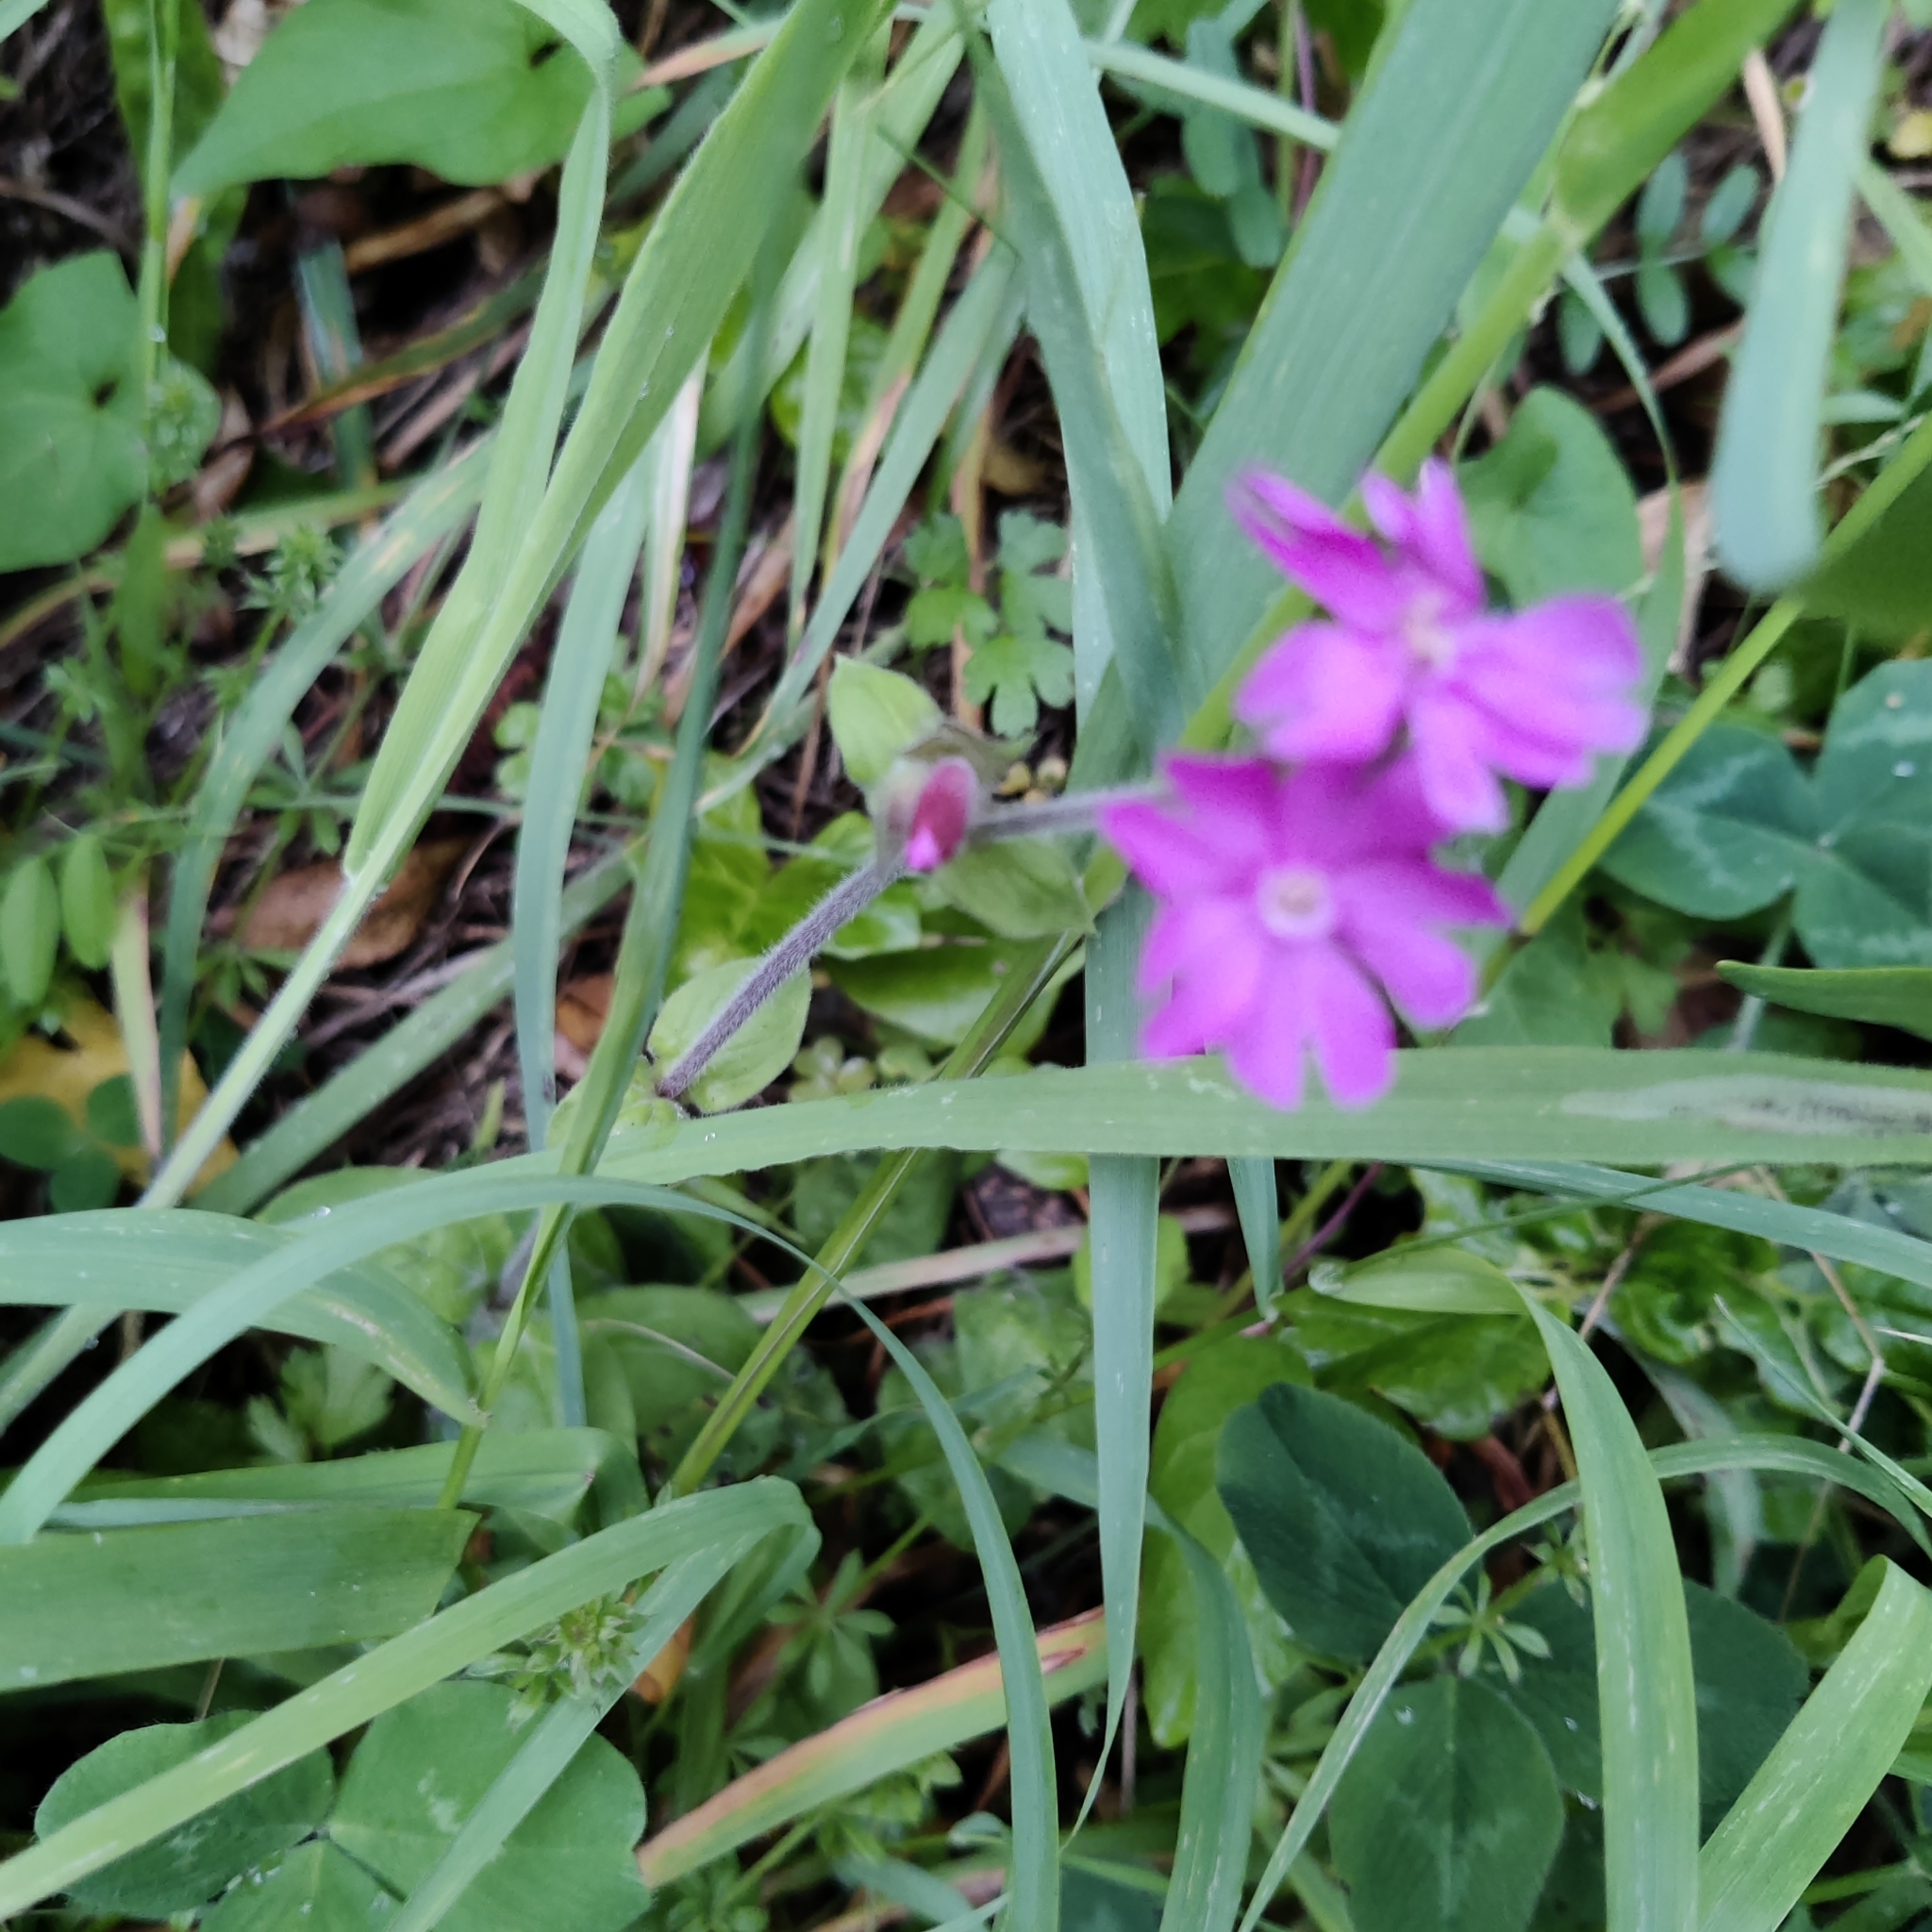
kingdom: Plantae
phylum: Tracheophyta
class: Magnoliopsida
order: Caryophyllales
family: Caryophyllaceae
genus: Silene
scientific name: Silene dioica
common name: Red campion
